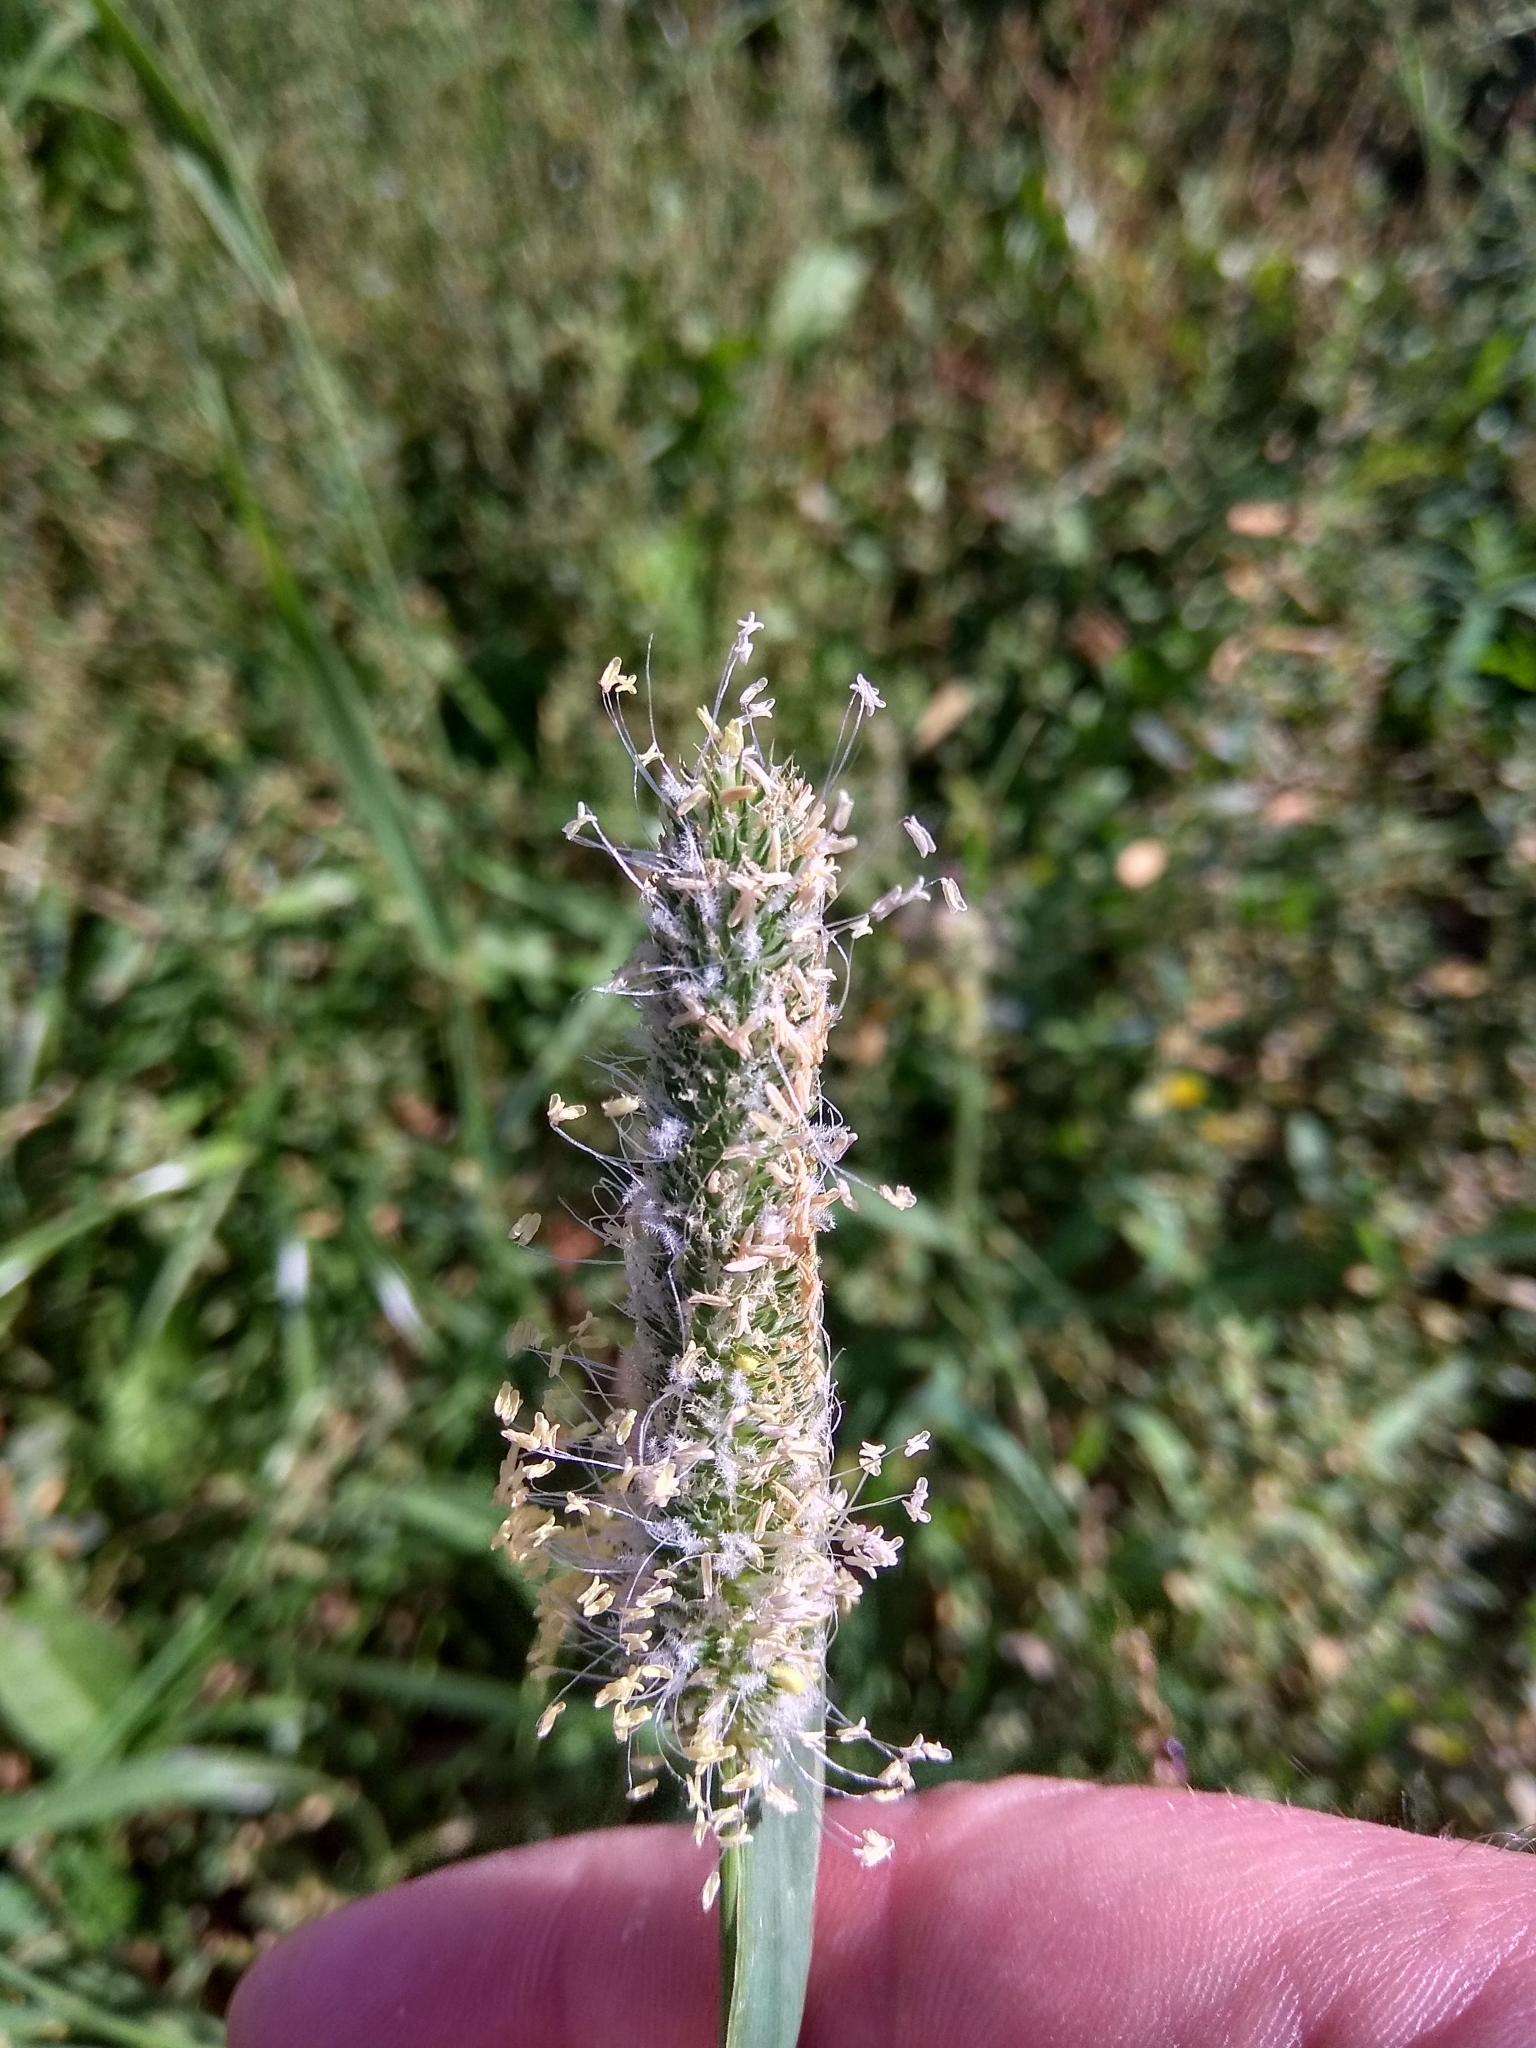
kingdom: Plantae
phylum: Tracheophyta
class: Liliopsida
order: Poales
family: Poaceae
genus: Phleum
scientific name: Phleum pratense
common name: Timothy grass
